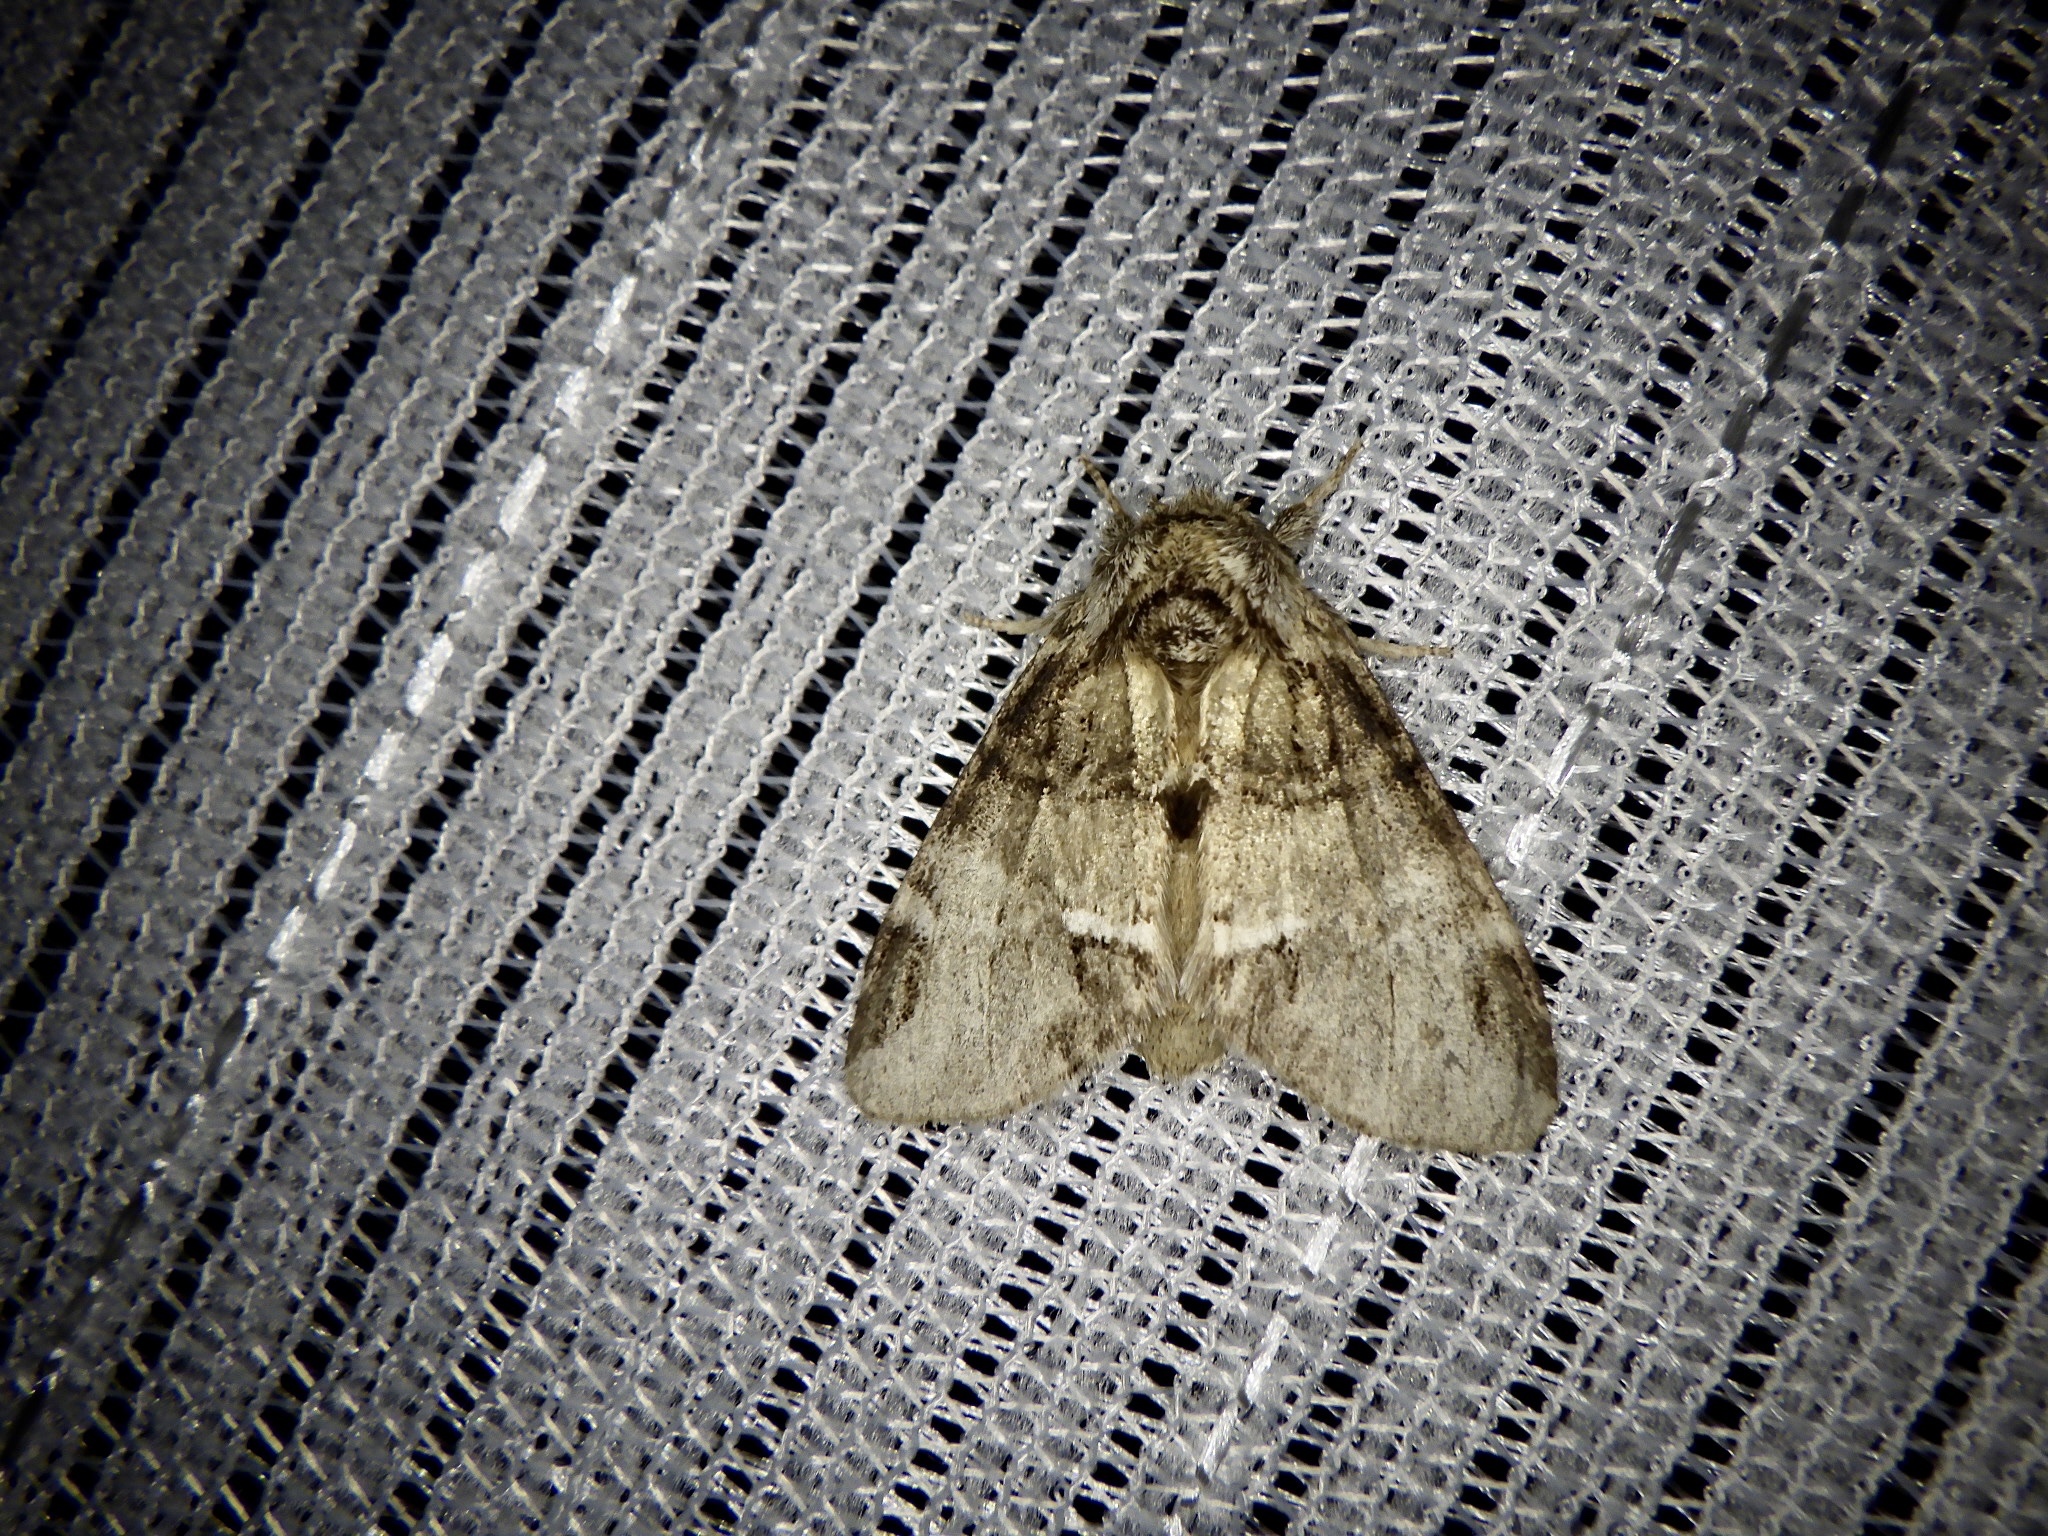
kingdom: Animalia
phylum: Arthropoda
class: Insecta
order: Lepidoptera
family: Notodontidae
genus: Drymonia
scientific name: Drymonia japonica
